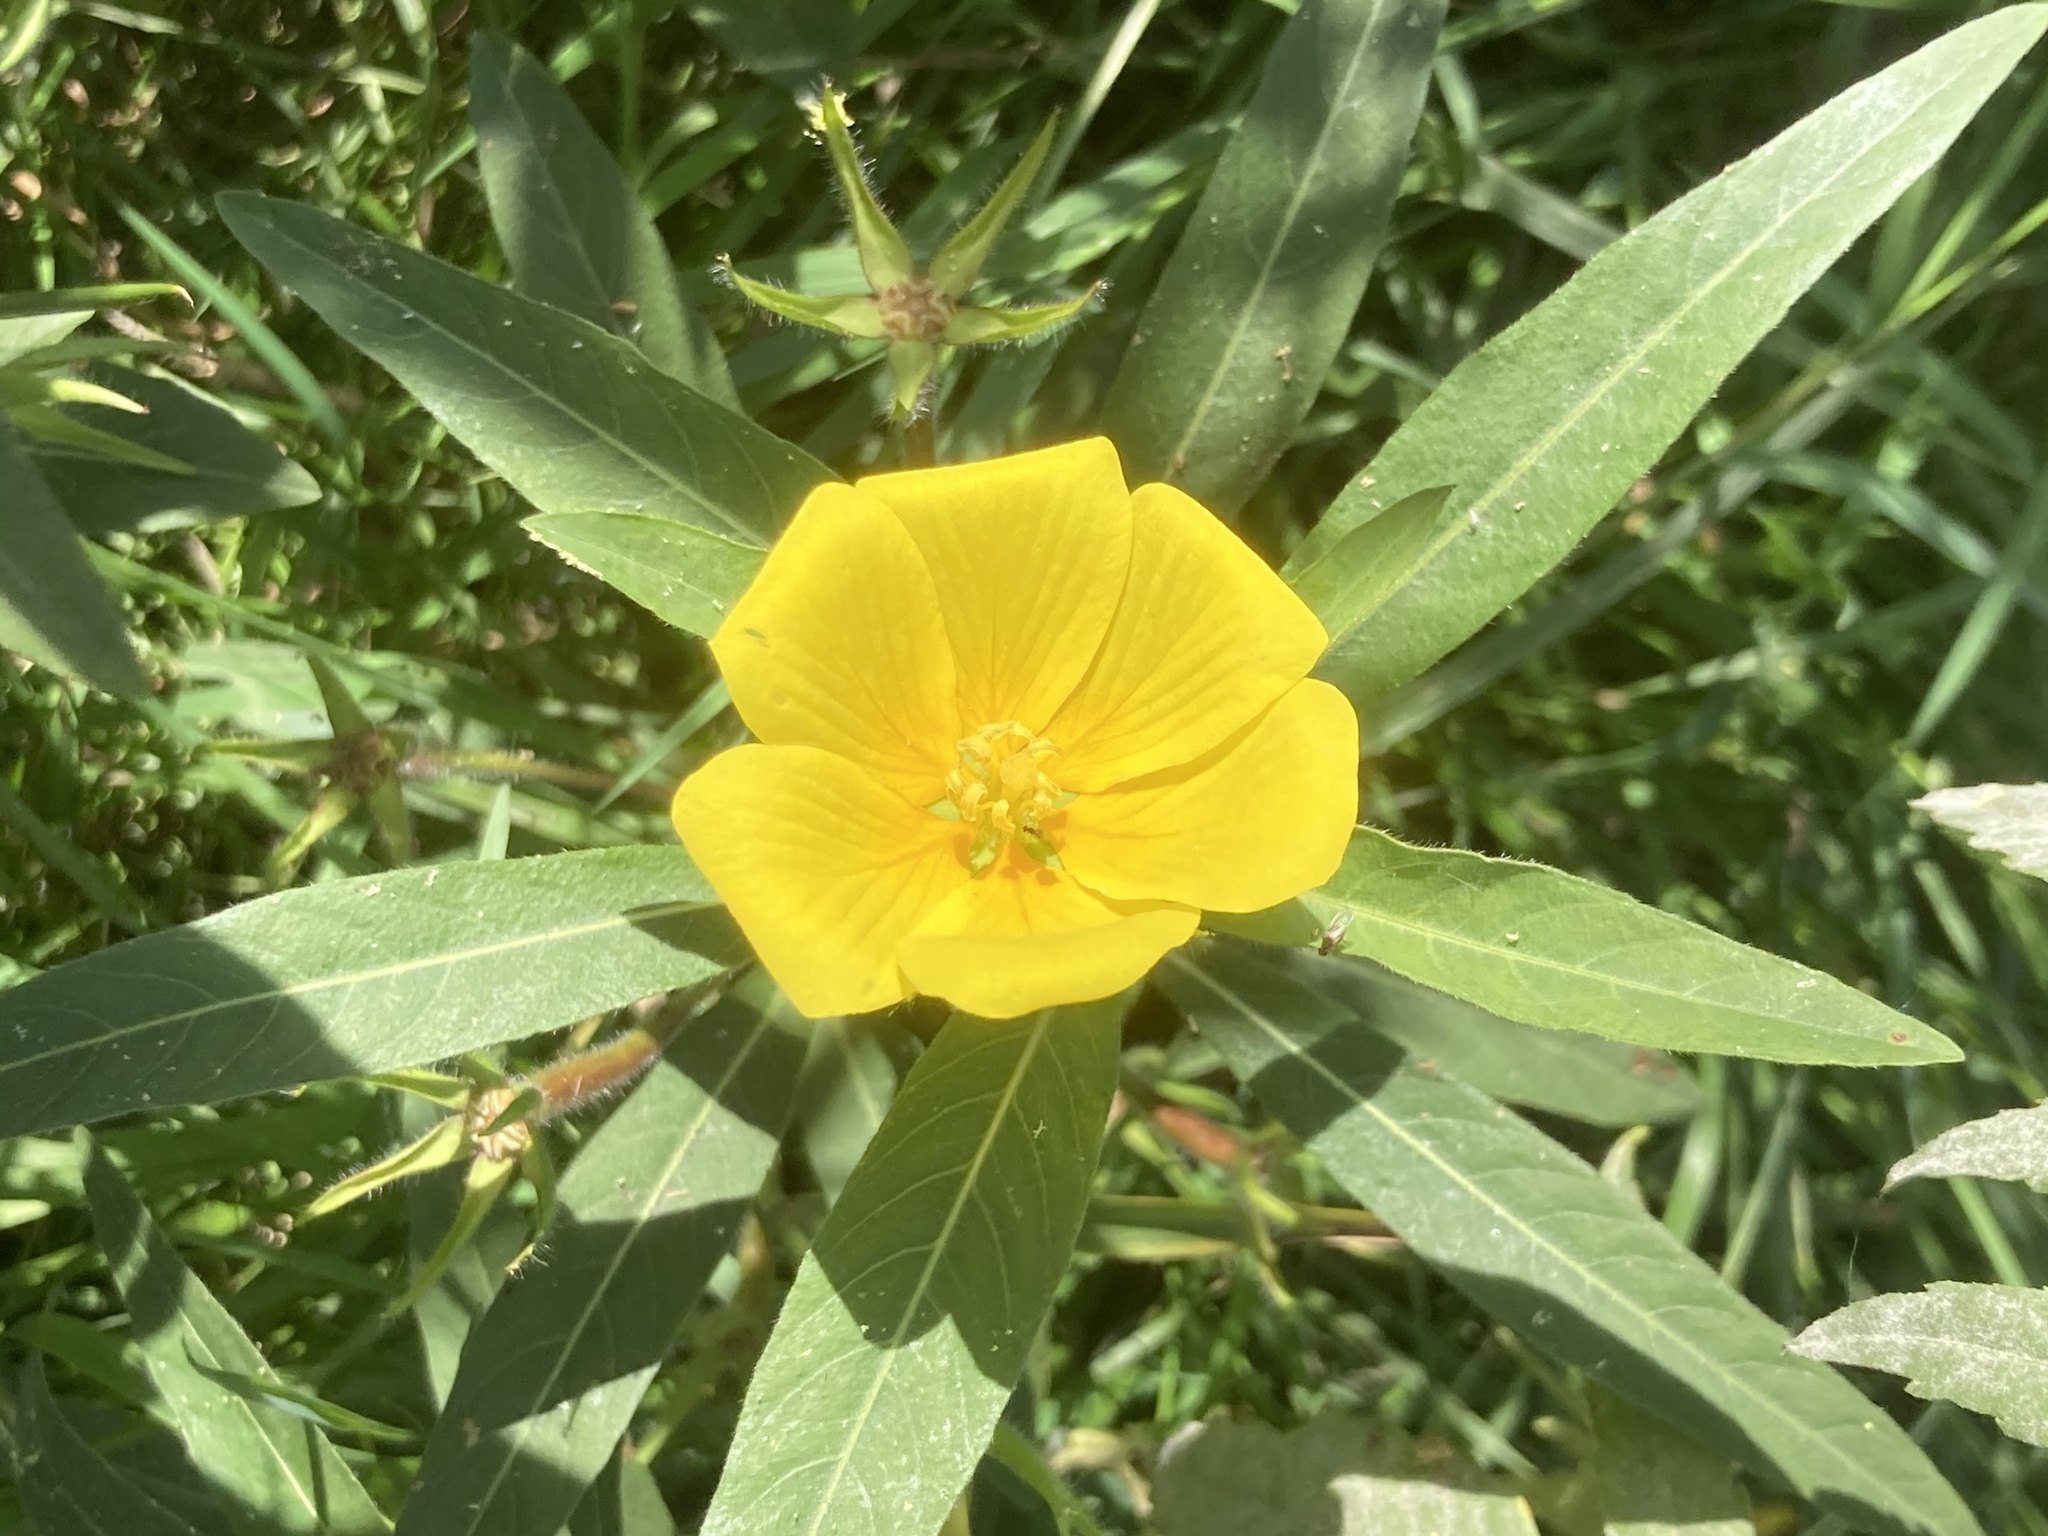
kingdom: Plantae
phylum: Tracheophyta
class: Magnoliopsida
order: Myrtales
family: Onagraceae
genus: Ludwigia
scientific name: Ludwigia grandiflora
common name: Water primrose
